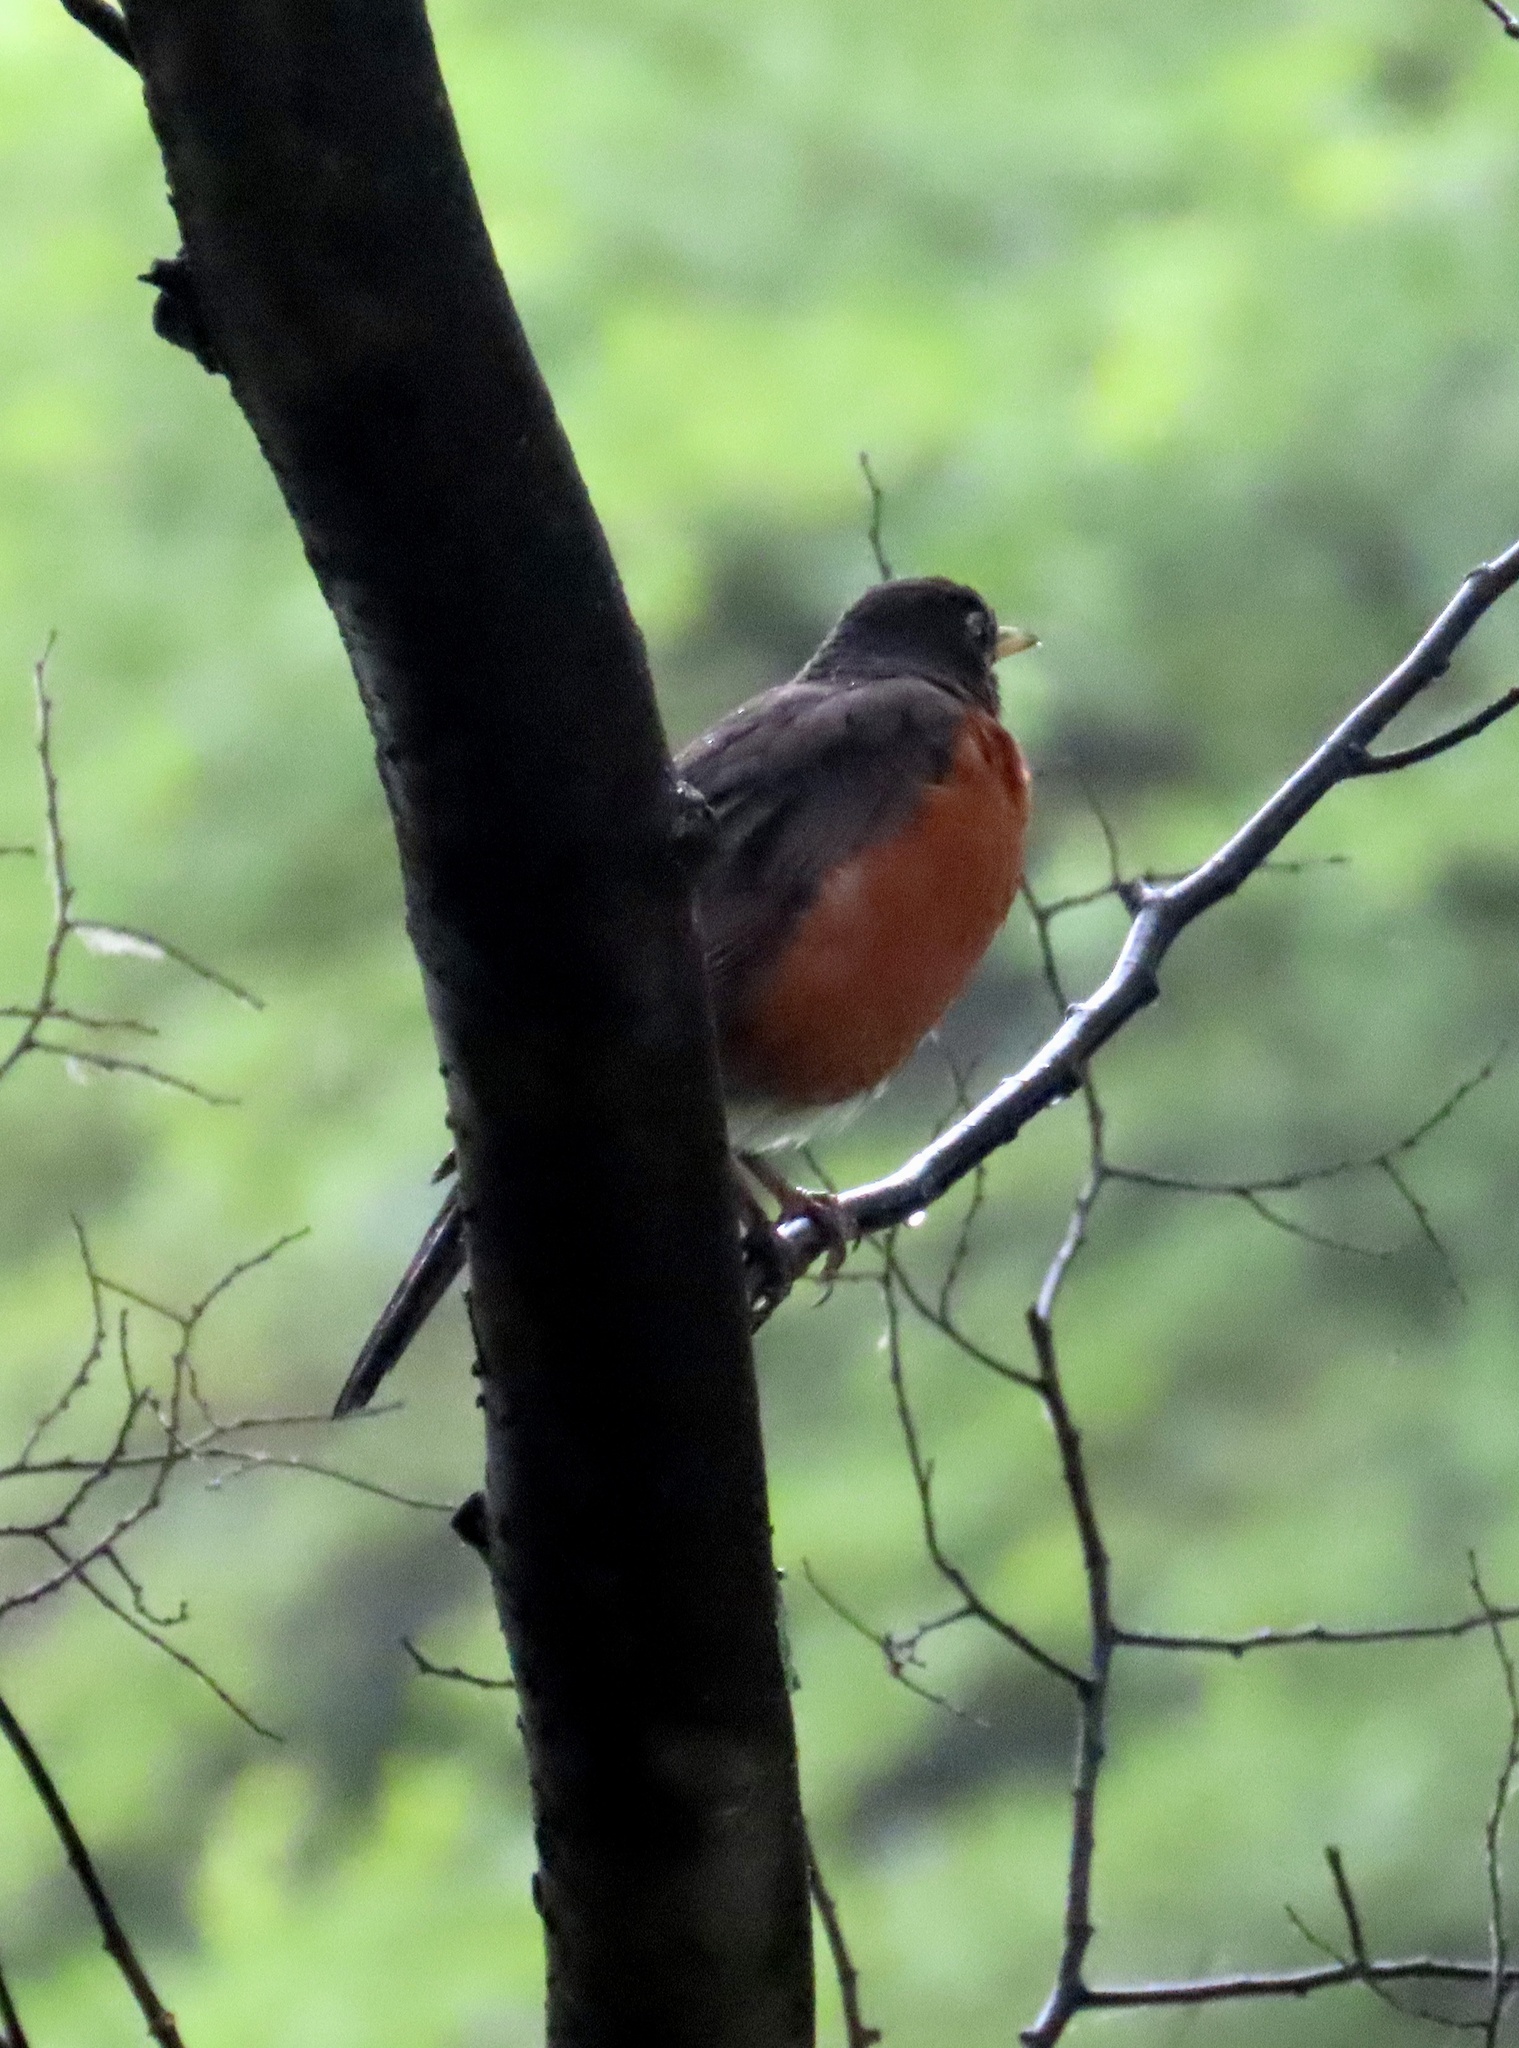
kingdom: Animalia
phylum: Chordata
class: Aves
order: Passeriformes
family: Turdidae
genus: Turdus
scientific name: Turdus migratorius
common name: American robin
